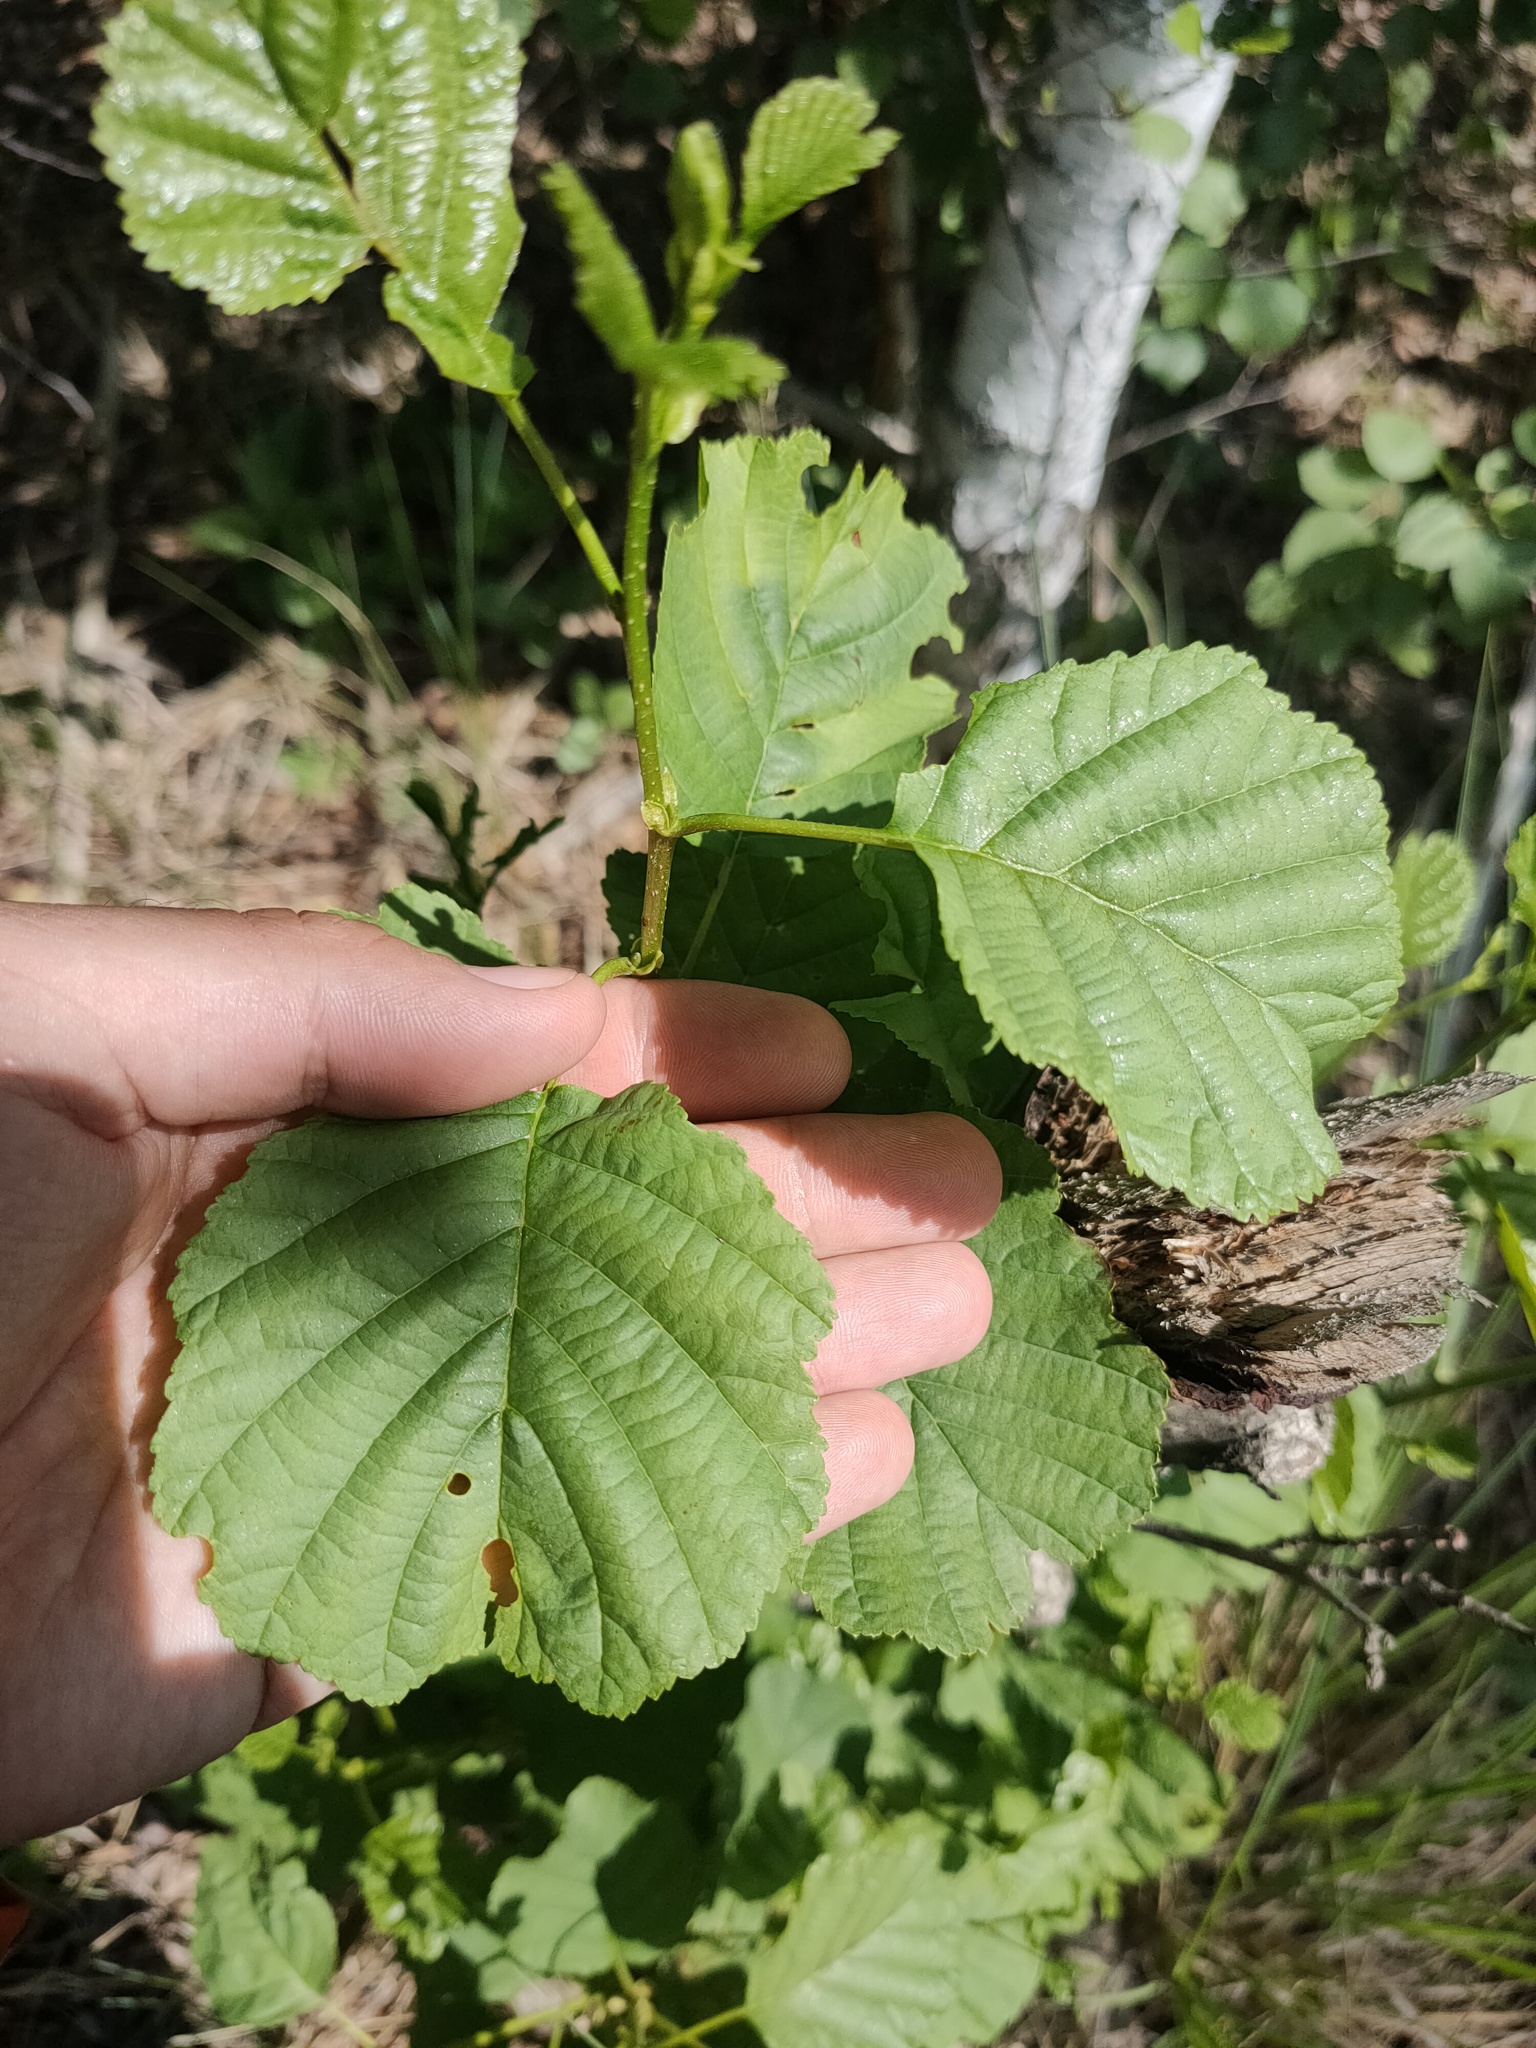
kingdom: Plantae
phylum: Tracheophyta
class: Magnoliopsida
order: Fagales
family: Betulaceae
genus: Alnus
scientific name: Alnus glutinosa
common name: Black alder
